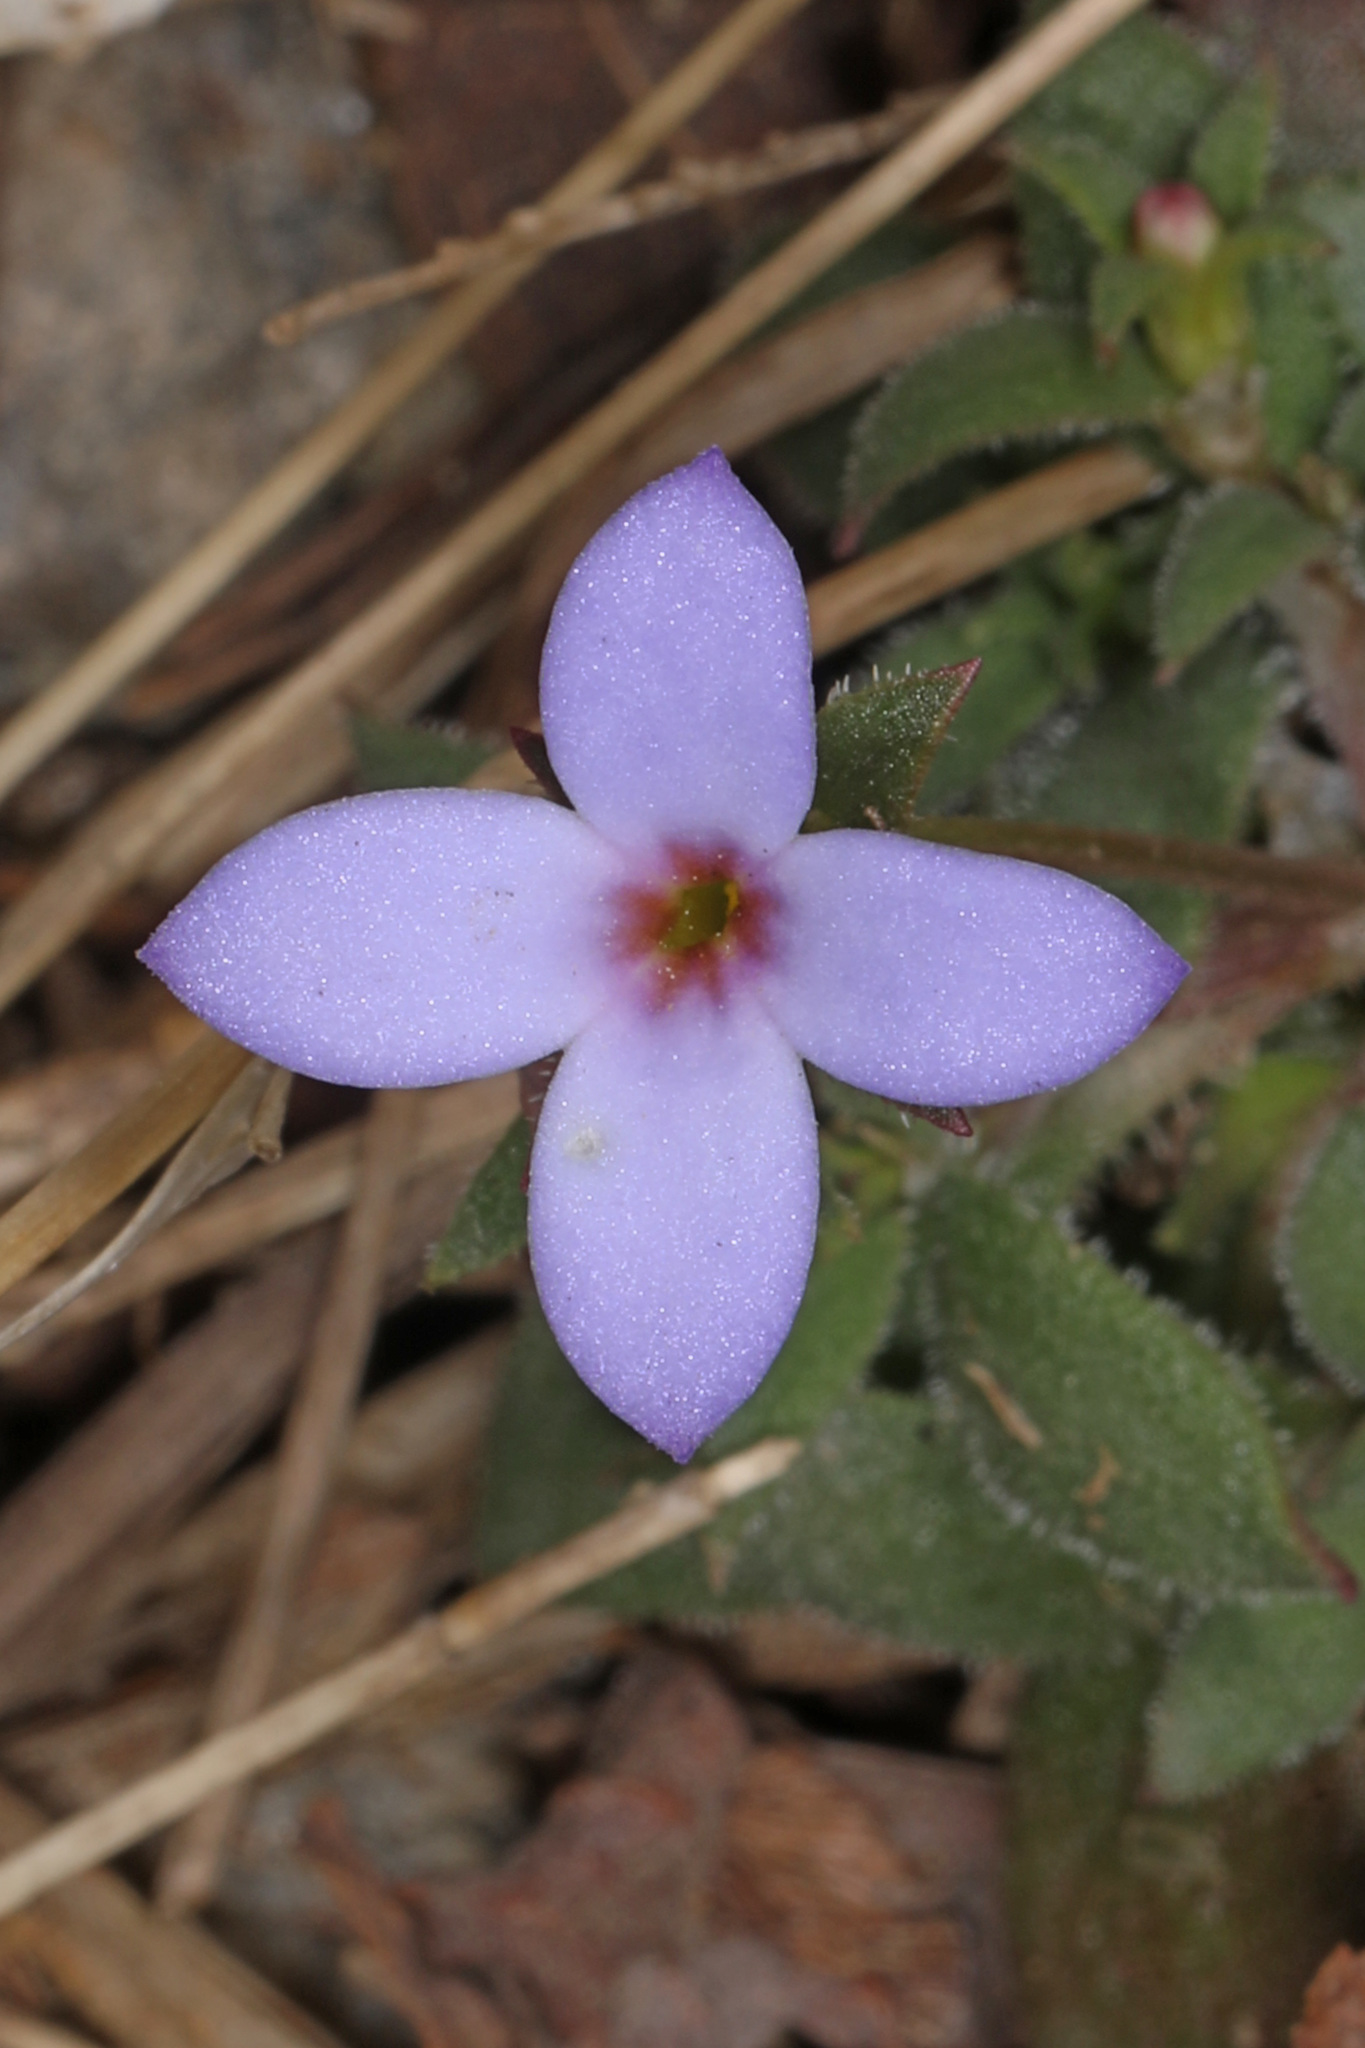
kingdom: Plantae
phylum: Tracheophyta
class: Magnoliopsida
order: Gentianales
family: Rubiaceae
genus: Houstonia
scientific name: Houstonia pusilla
